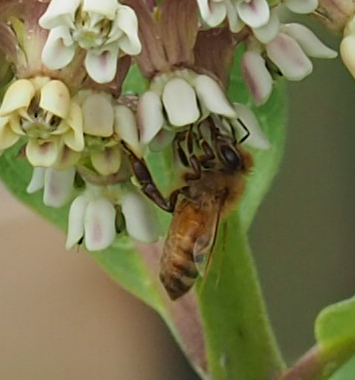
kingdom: Animalia
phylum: Arthropoda
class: Insecta
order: Hymenoptera
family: Apidae
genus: Apis
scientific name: Apis mellifera
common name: Honey bee
